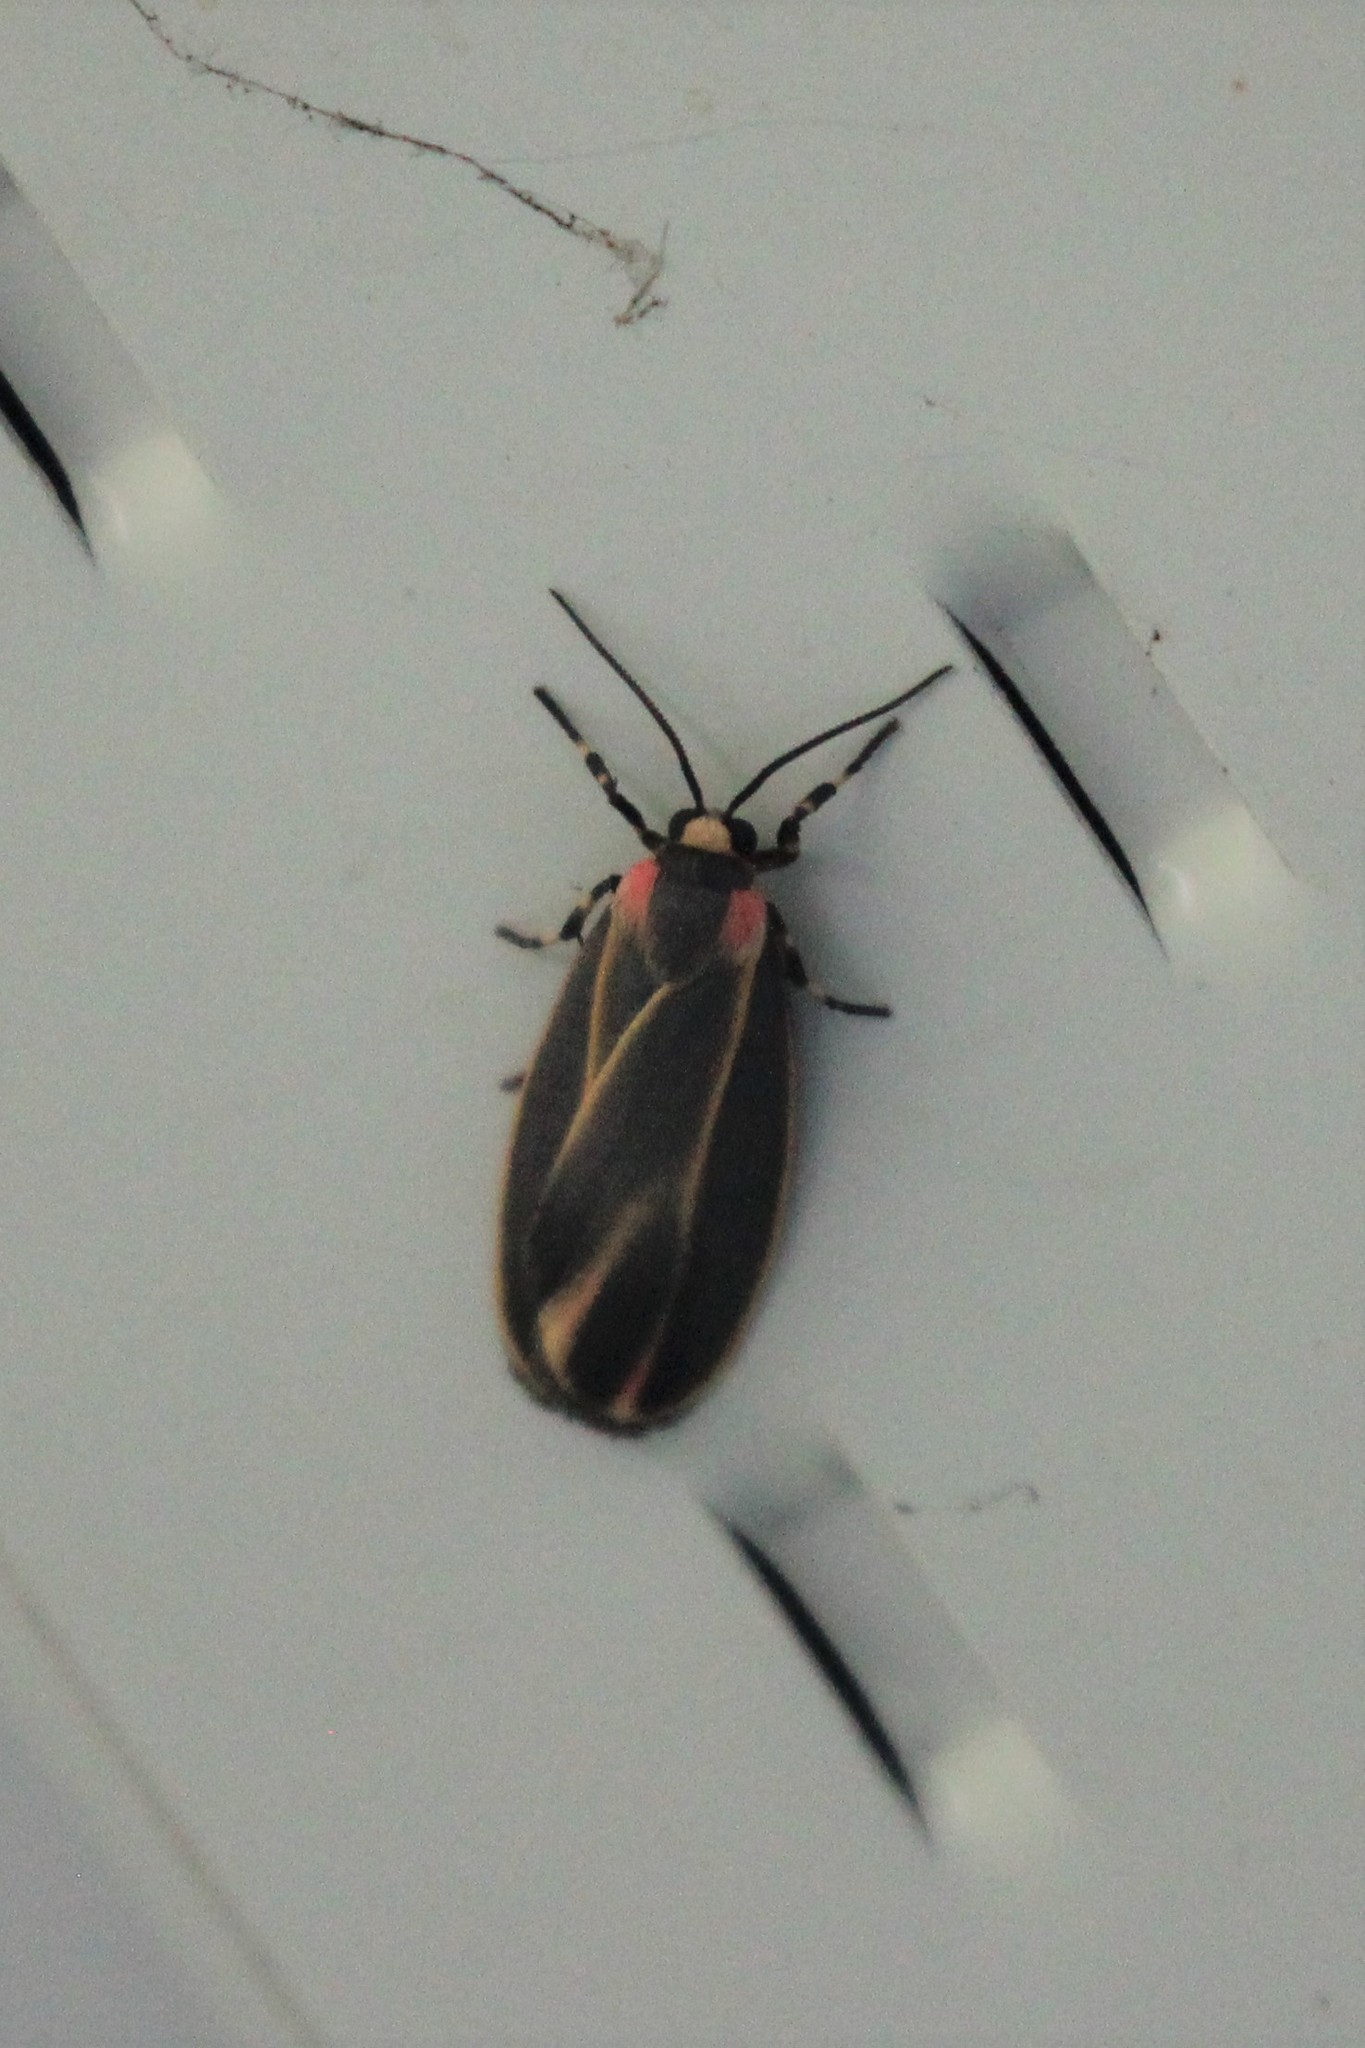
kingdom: Animalia
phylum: Arthropoda
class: Insecta
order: Lepidoptera
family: Erebidae
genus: Hypoprepia
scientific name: Hypoprepia fucosa
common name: Painted lichen moth
